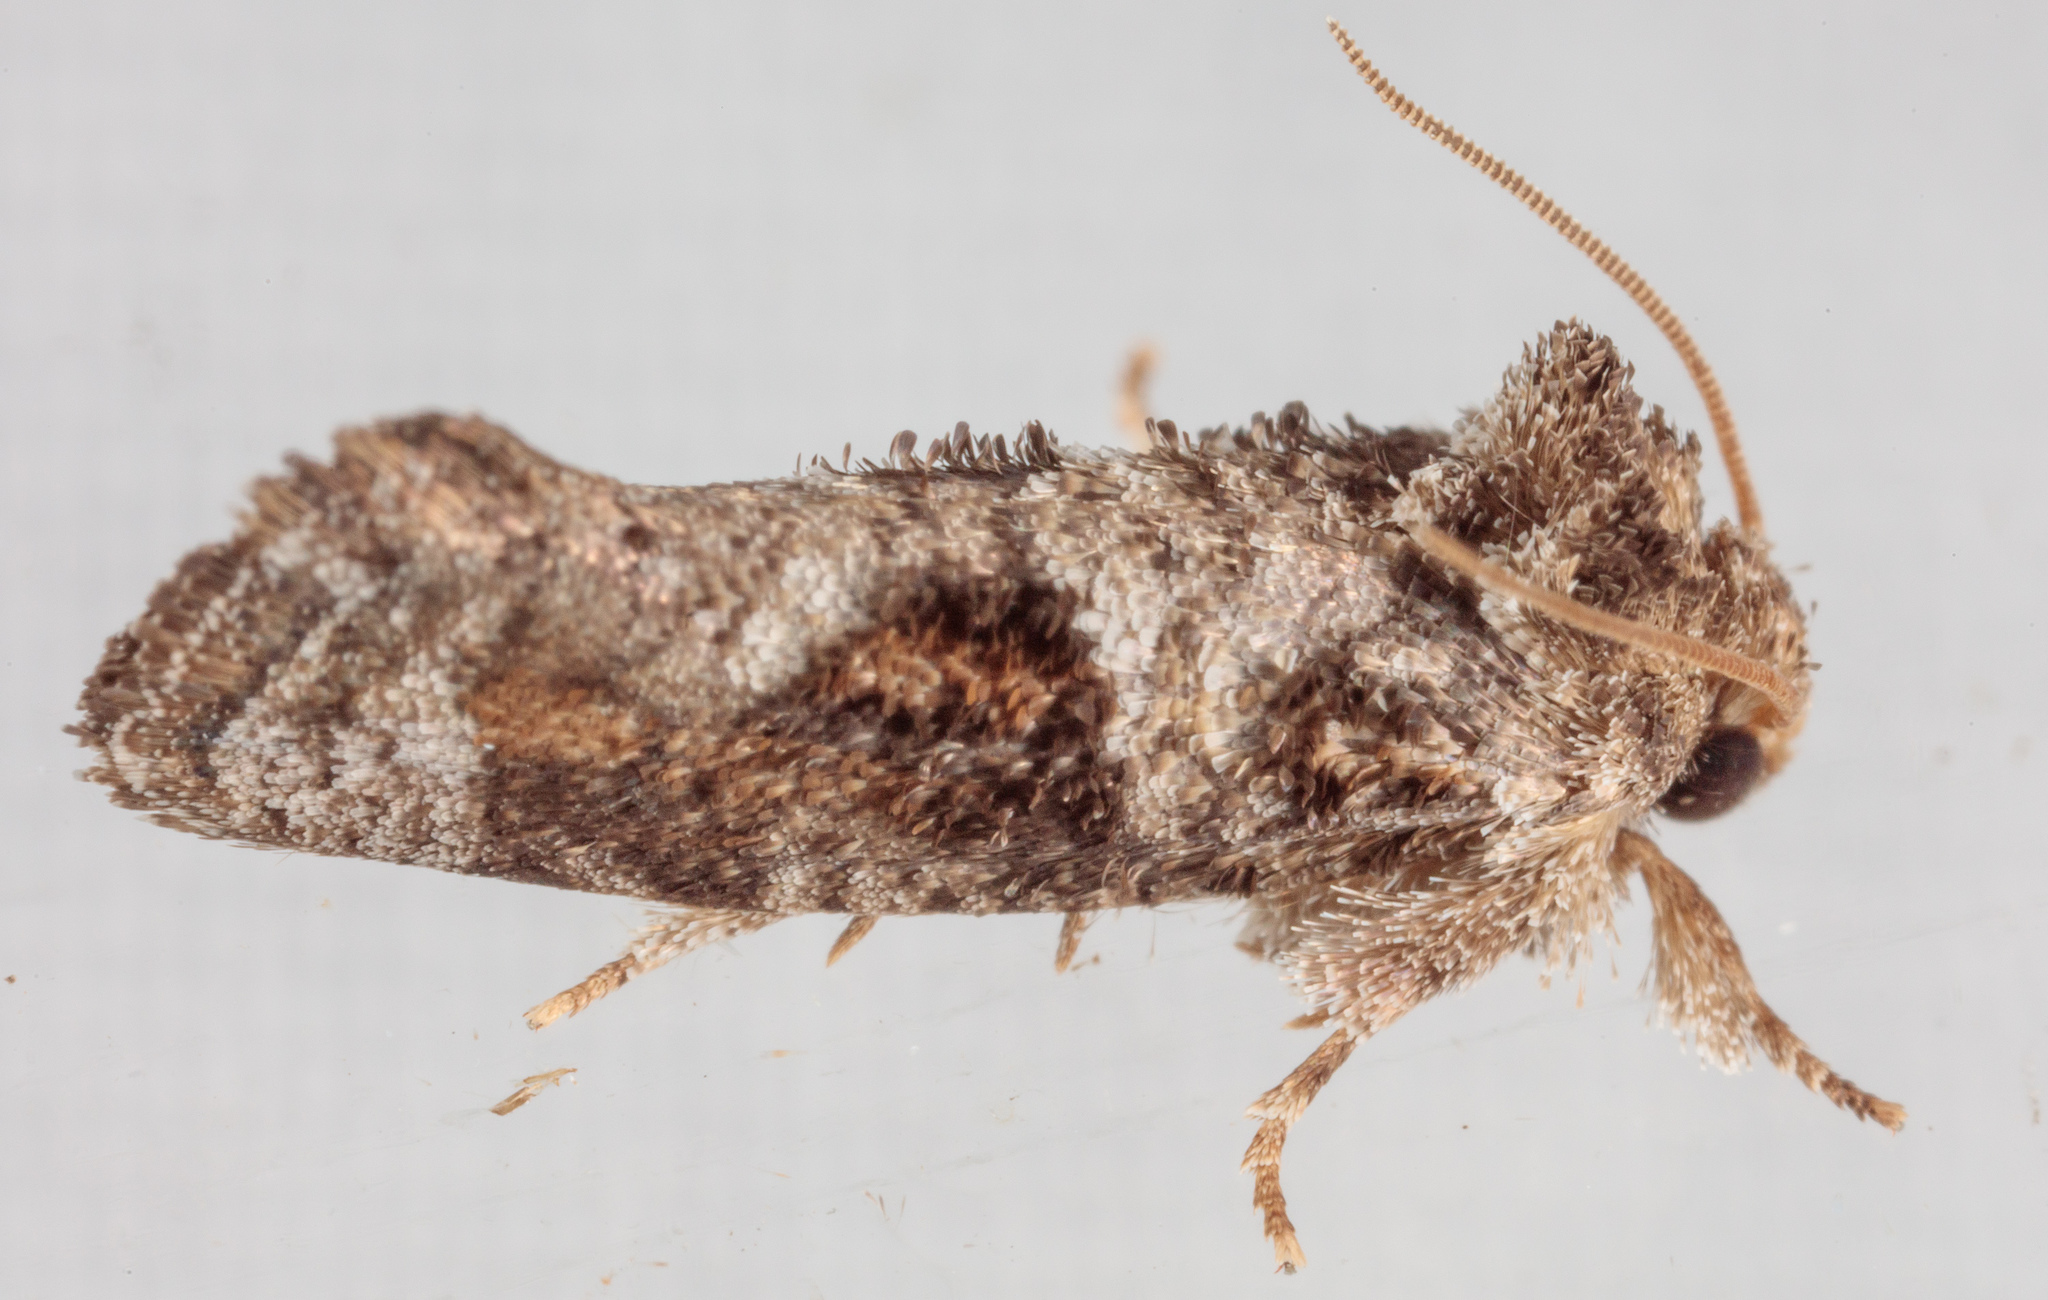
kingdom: Animalia
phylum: Arthropoda
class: Insecta
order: Lepidoptera
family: Tineidae
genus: Acrolophus
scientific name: Acrolophus piger
